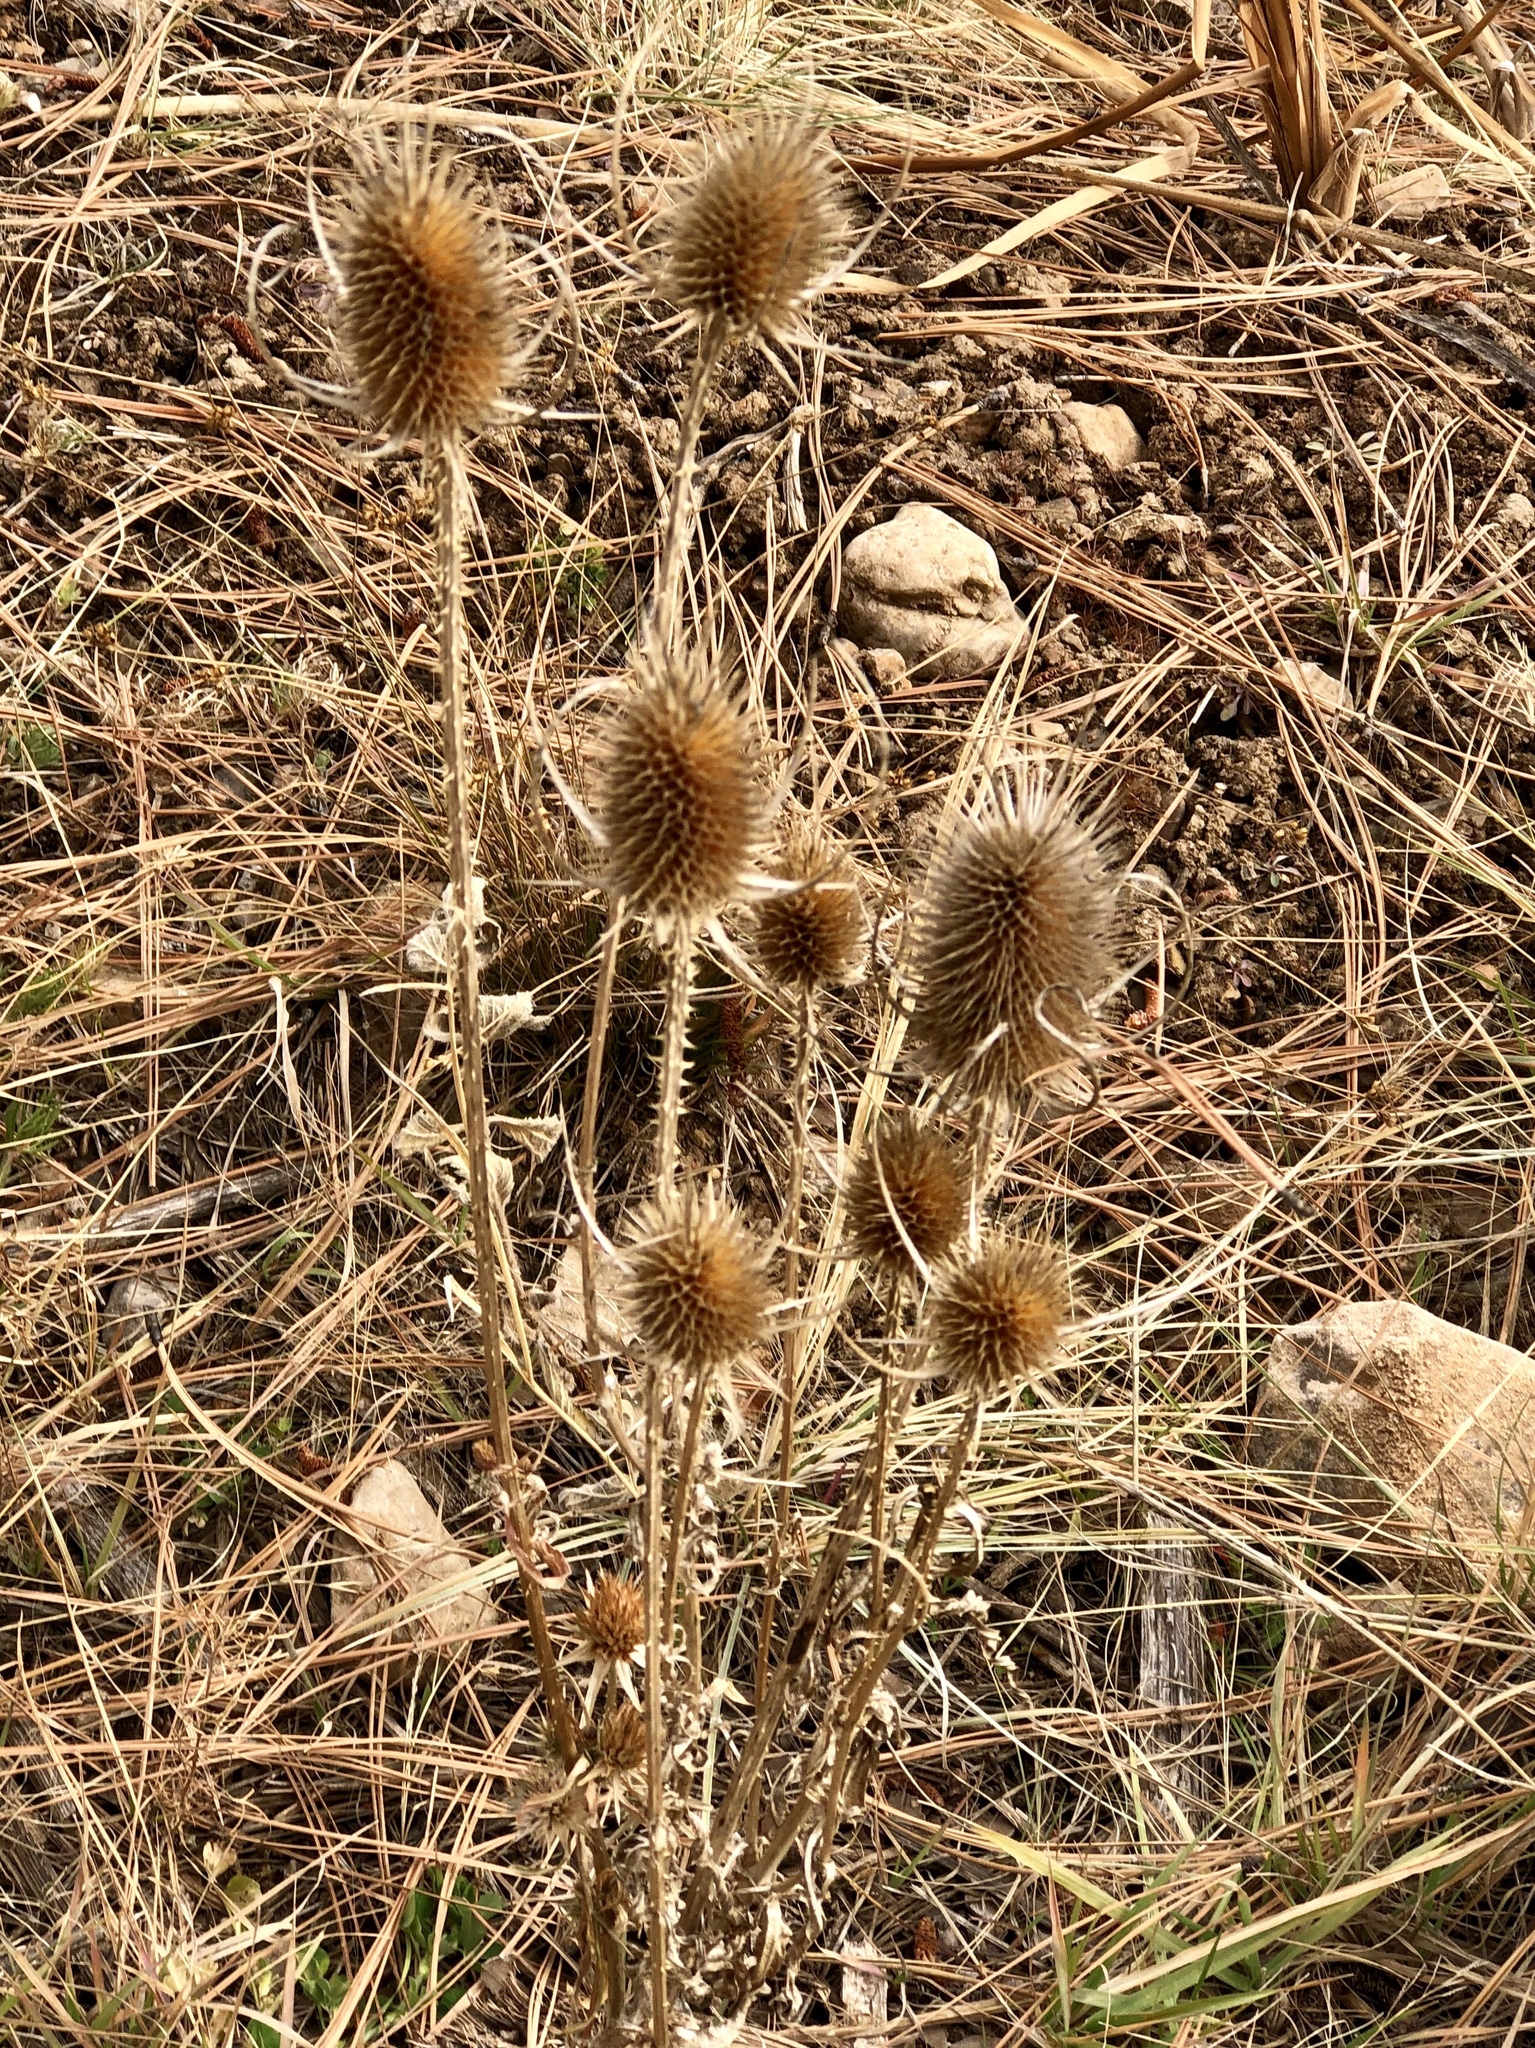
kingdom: Plantae
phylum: Tracheophyta
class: Magnoliopsida
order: Dipsacales
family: Caprifoliaceae
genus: Dipsacus
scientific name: Dipsacus fullonum
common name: Teasel
